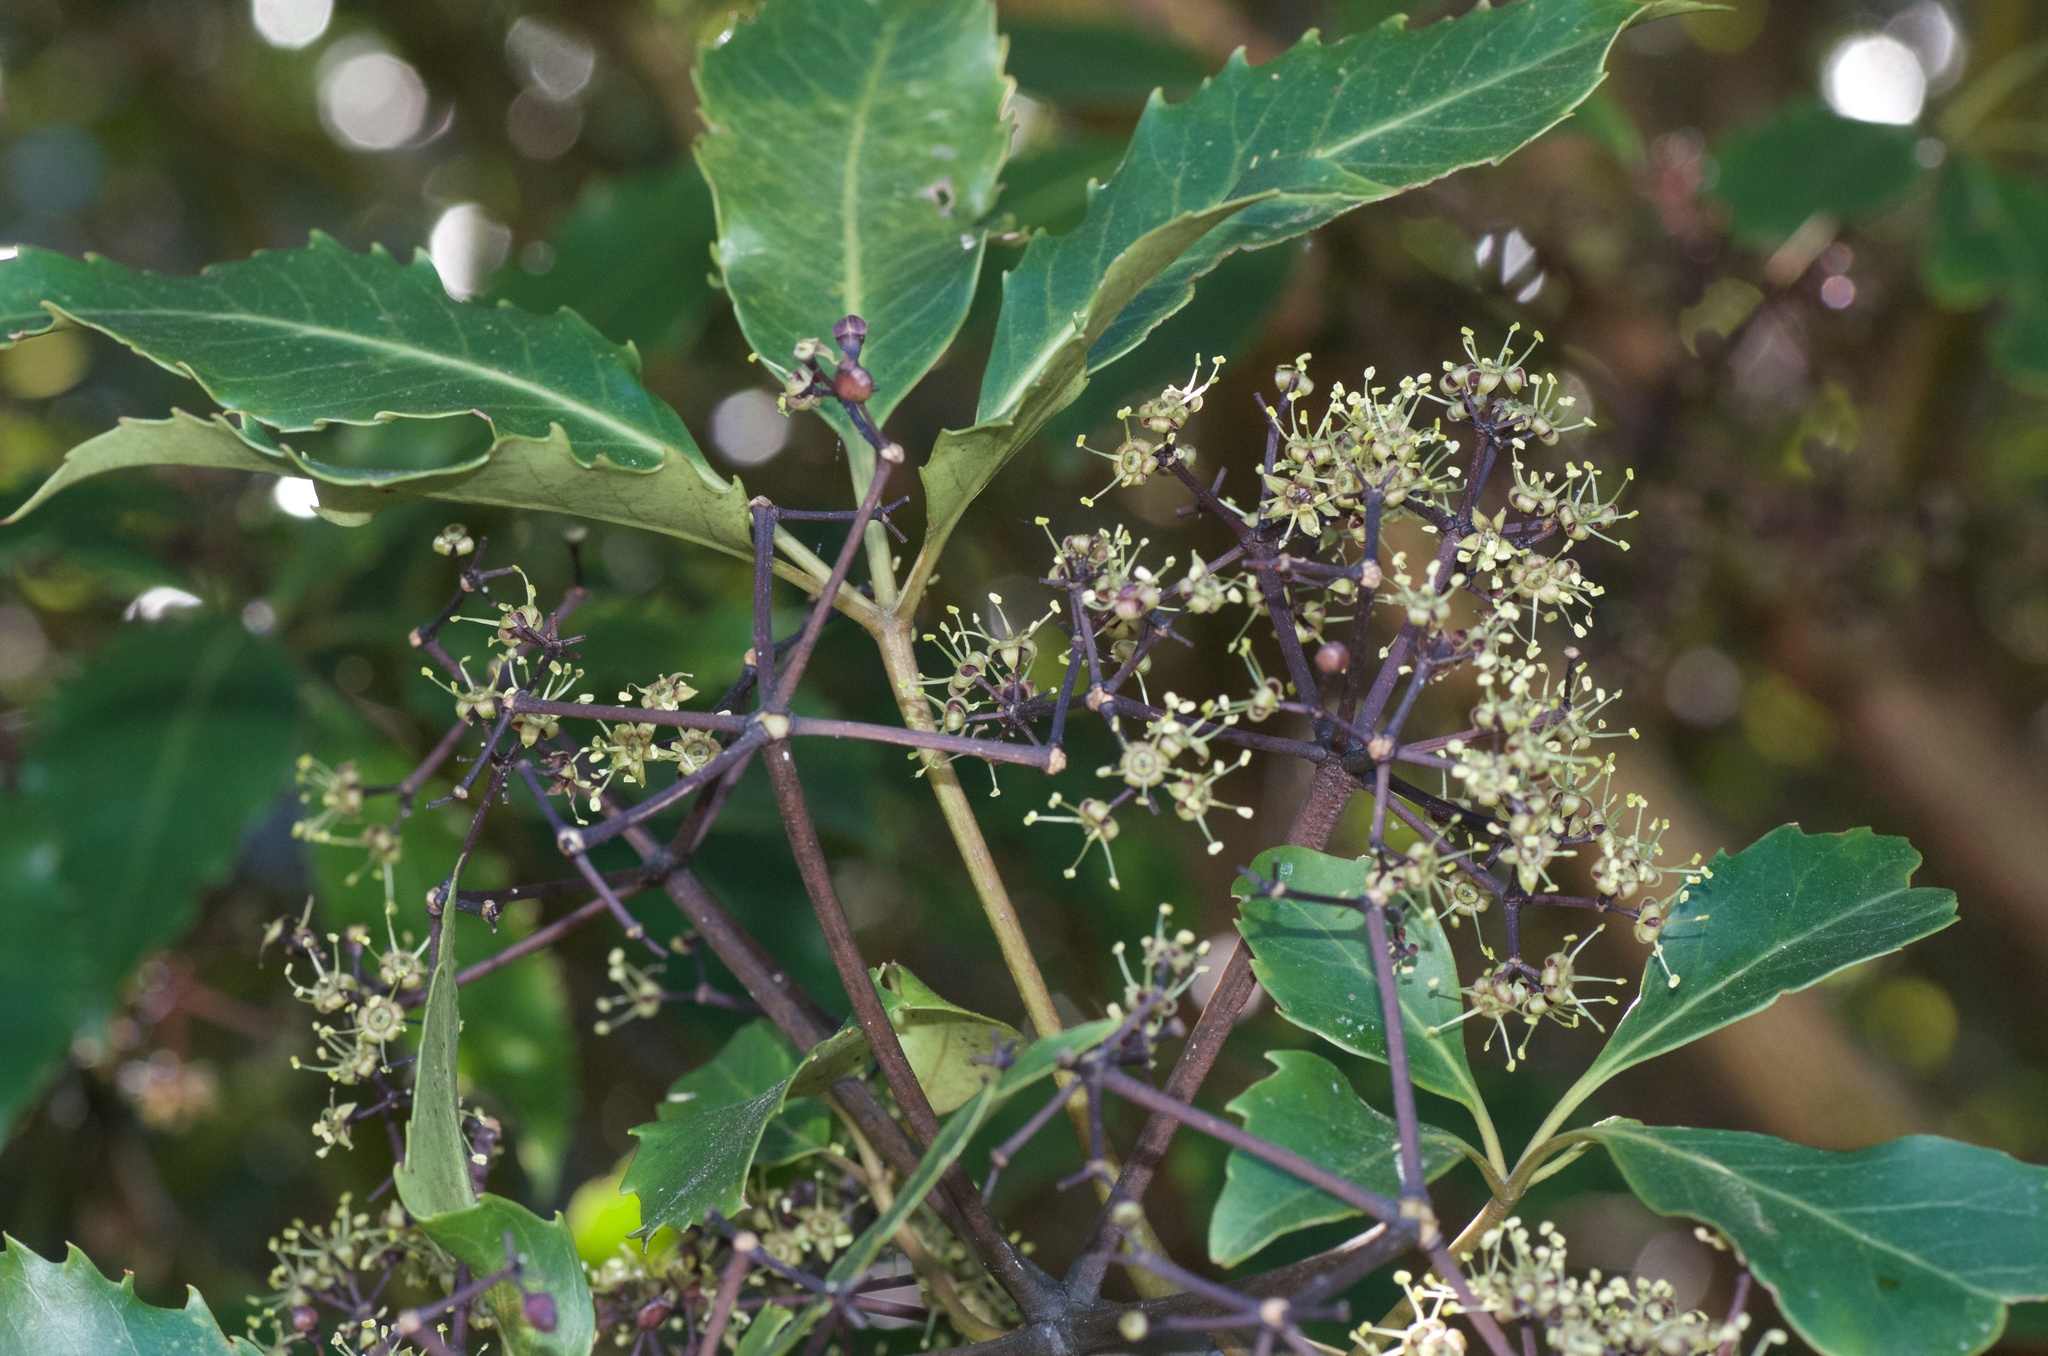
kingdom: Plantae
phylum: Tracheophyta
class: Magnoliopsida
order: Apiales
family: Araliaceae
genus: Neopanax
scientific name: Neopanax arboreus
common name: Five-fingers
